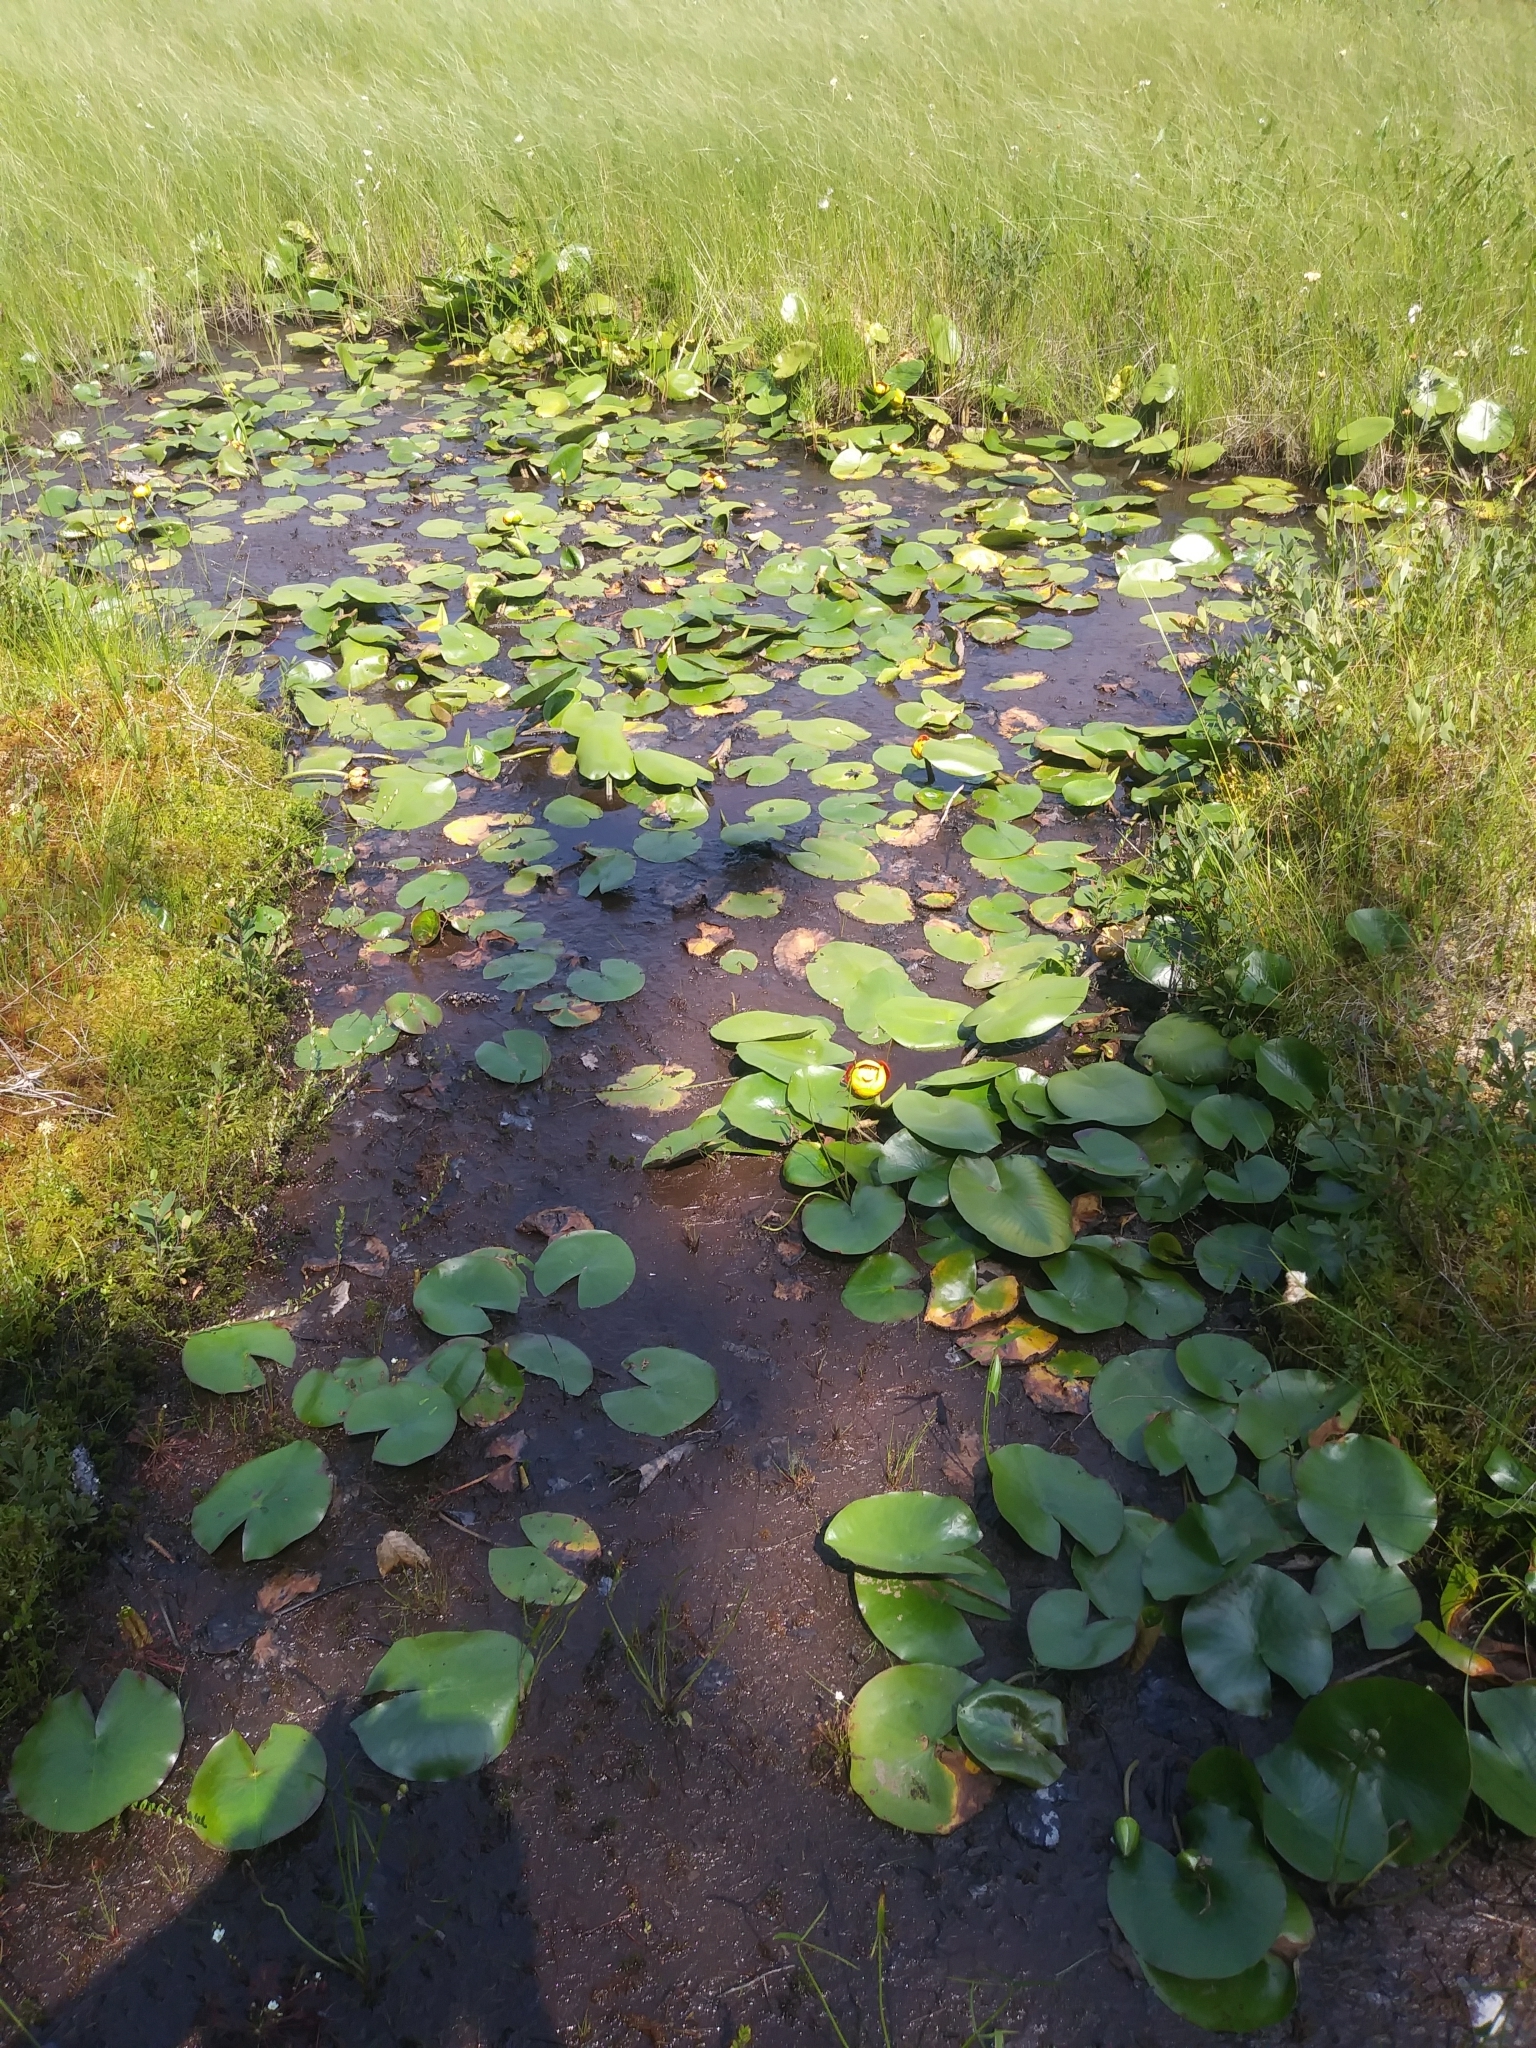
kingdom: Plantae
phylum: Tracheophyta
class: Magnoliopsida
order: Nymphaeales
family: Nymphaeaceae
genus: Nuphar
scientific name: Nuphar variegata
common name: Beaver-root
